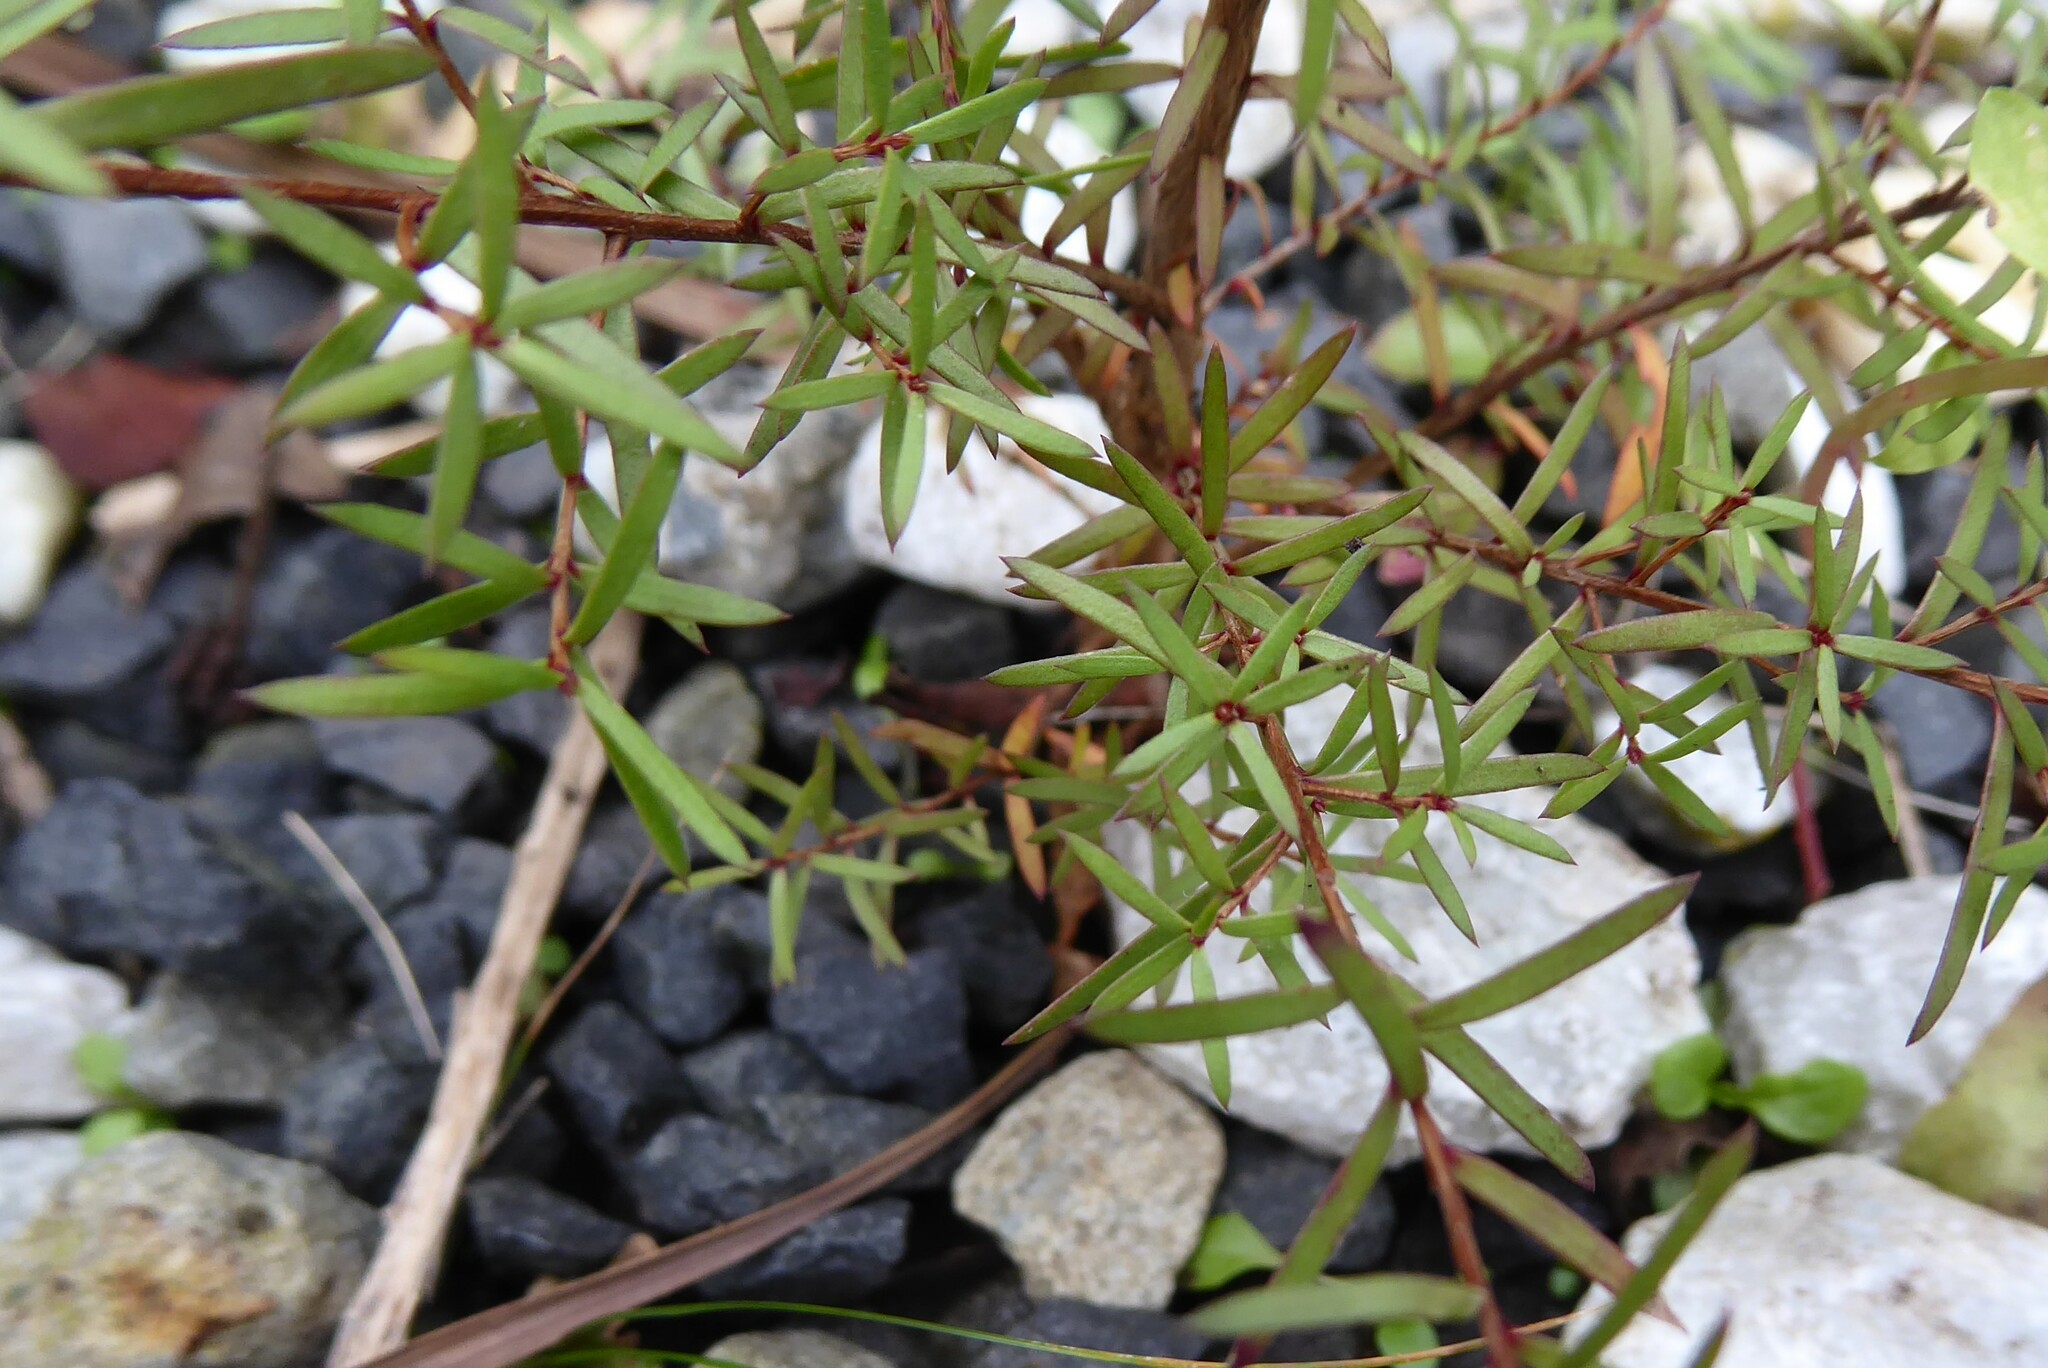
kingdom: Plantae
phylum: Tracheophyta
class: Magnoliopsida
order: Myrtales
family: Myrtaceae
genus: Kunzea
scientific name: Kunzea robusta
